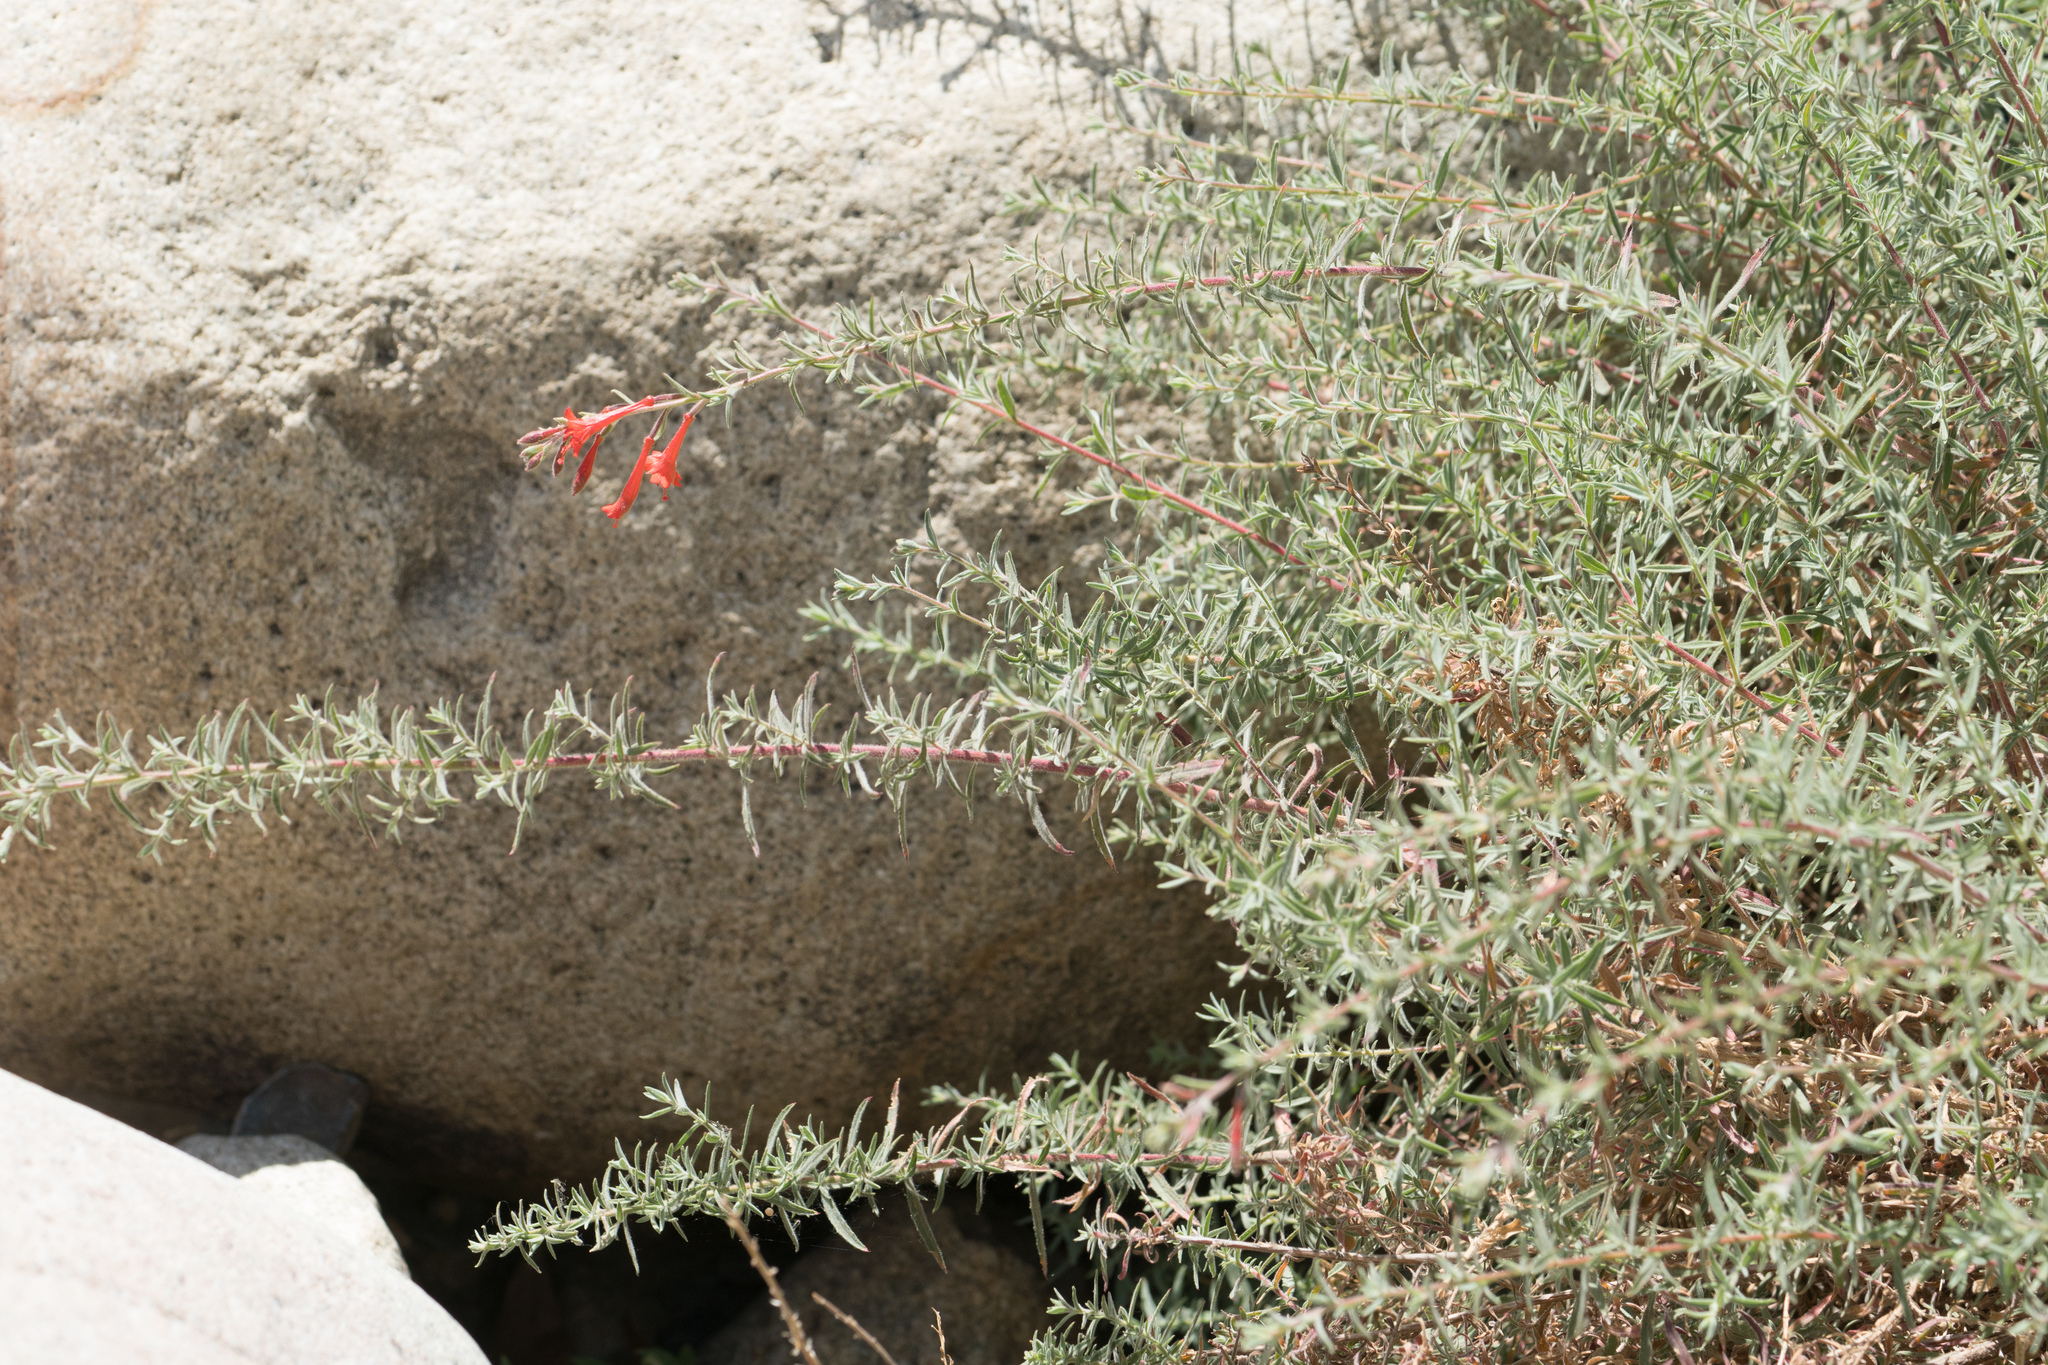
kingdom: Plantae
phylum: Tracheophyta
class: Magnoliopsida
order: Myrtales
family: Onagraceae
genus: Epilobium
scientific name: Epilobium canum
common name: California-fuchsia
